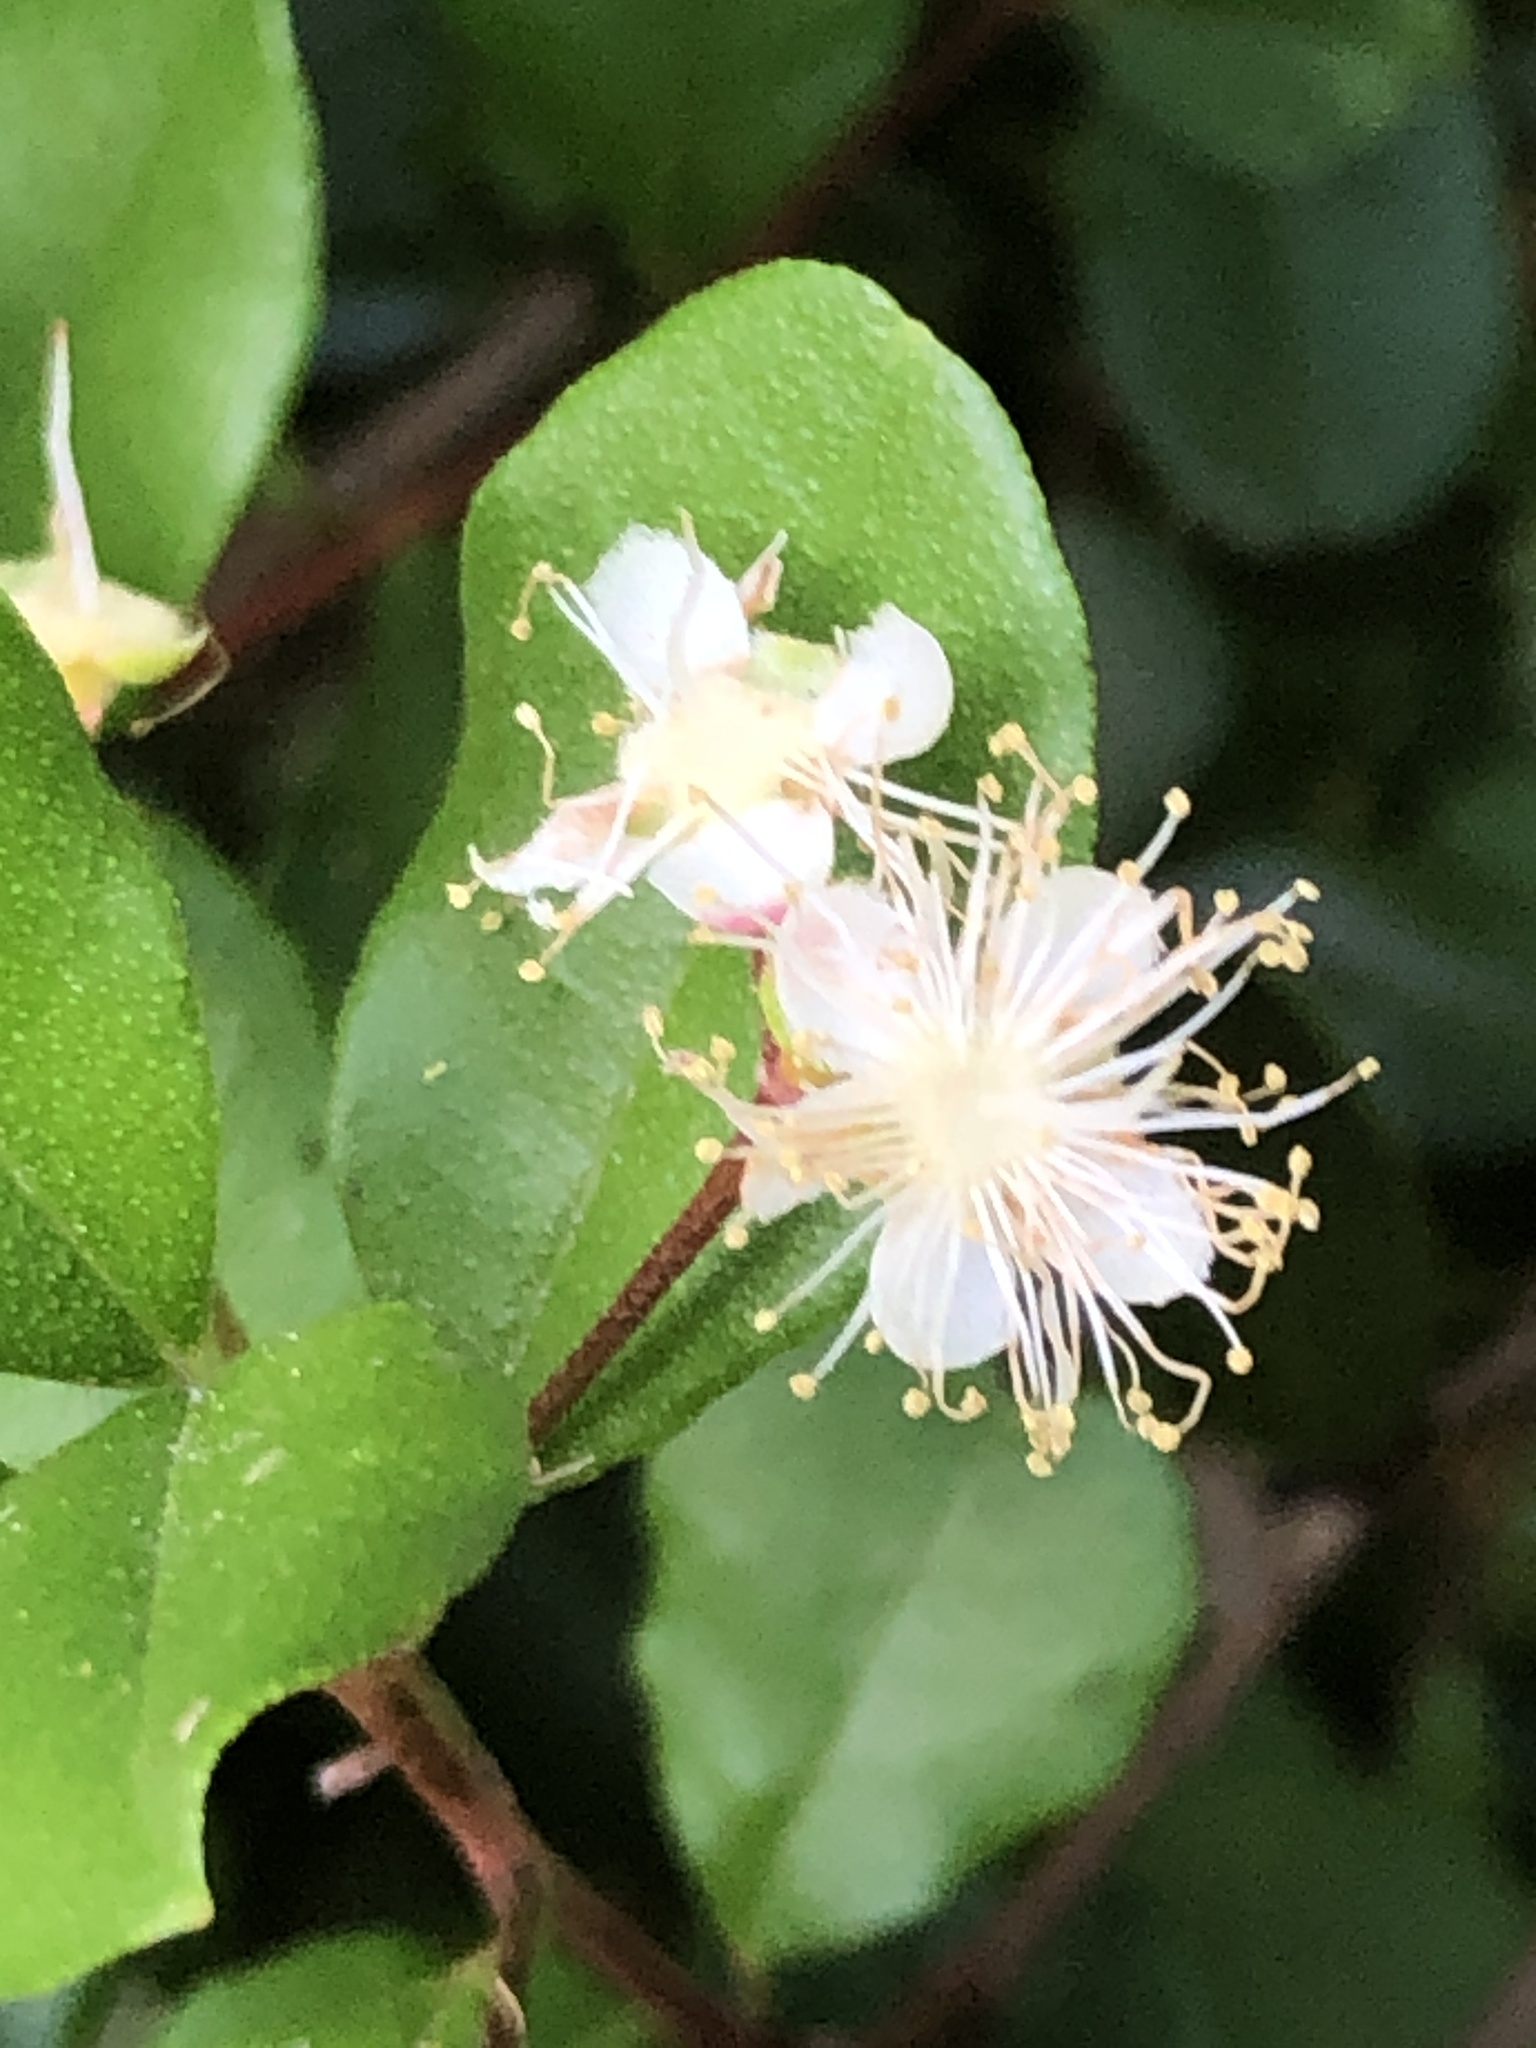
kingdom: Plantae
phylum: Tracheophyta
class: Magnoliopsida
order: Myrtales
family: Myrtaceae
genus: Myrcianthes
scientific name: Myrcianthes fragrans
